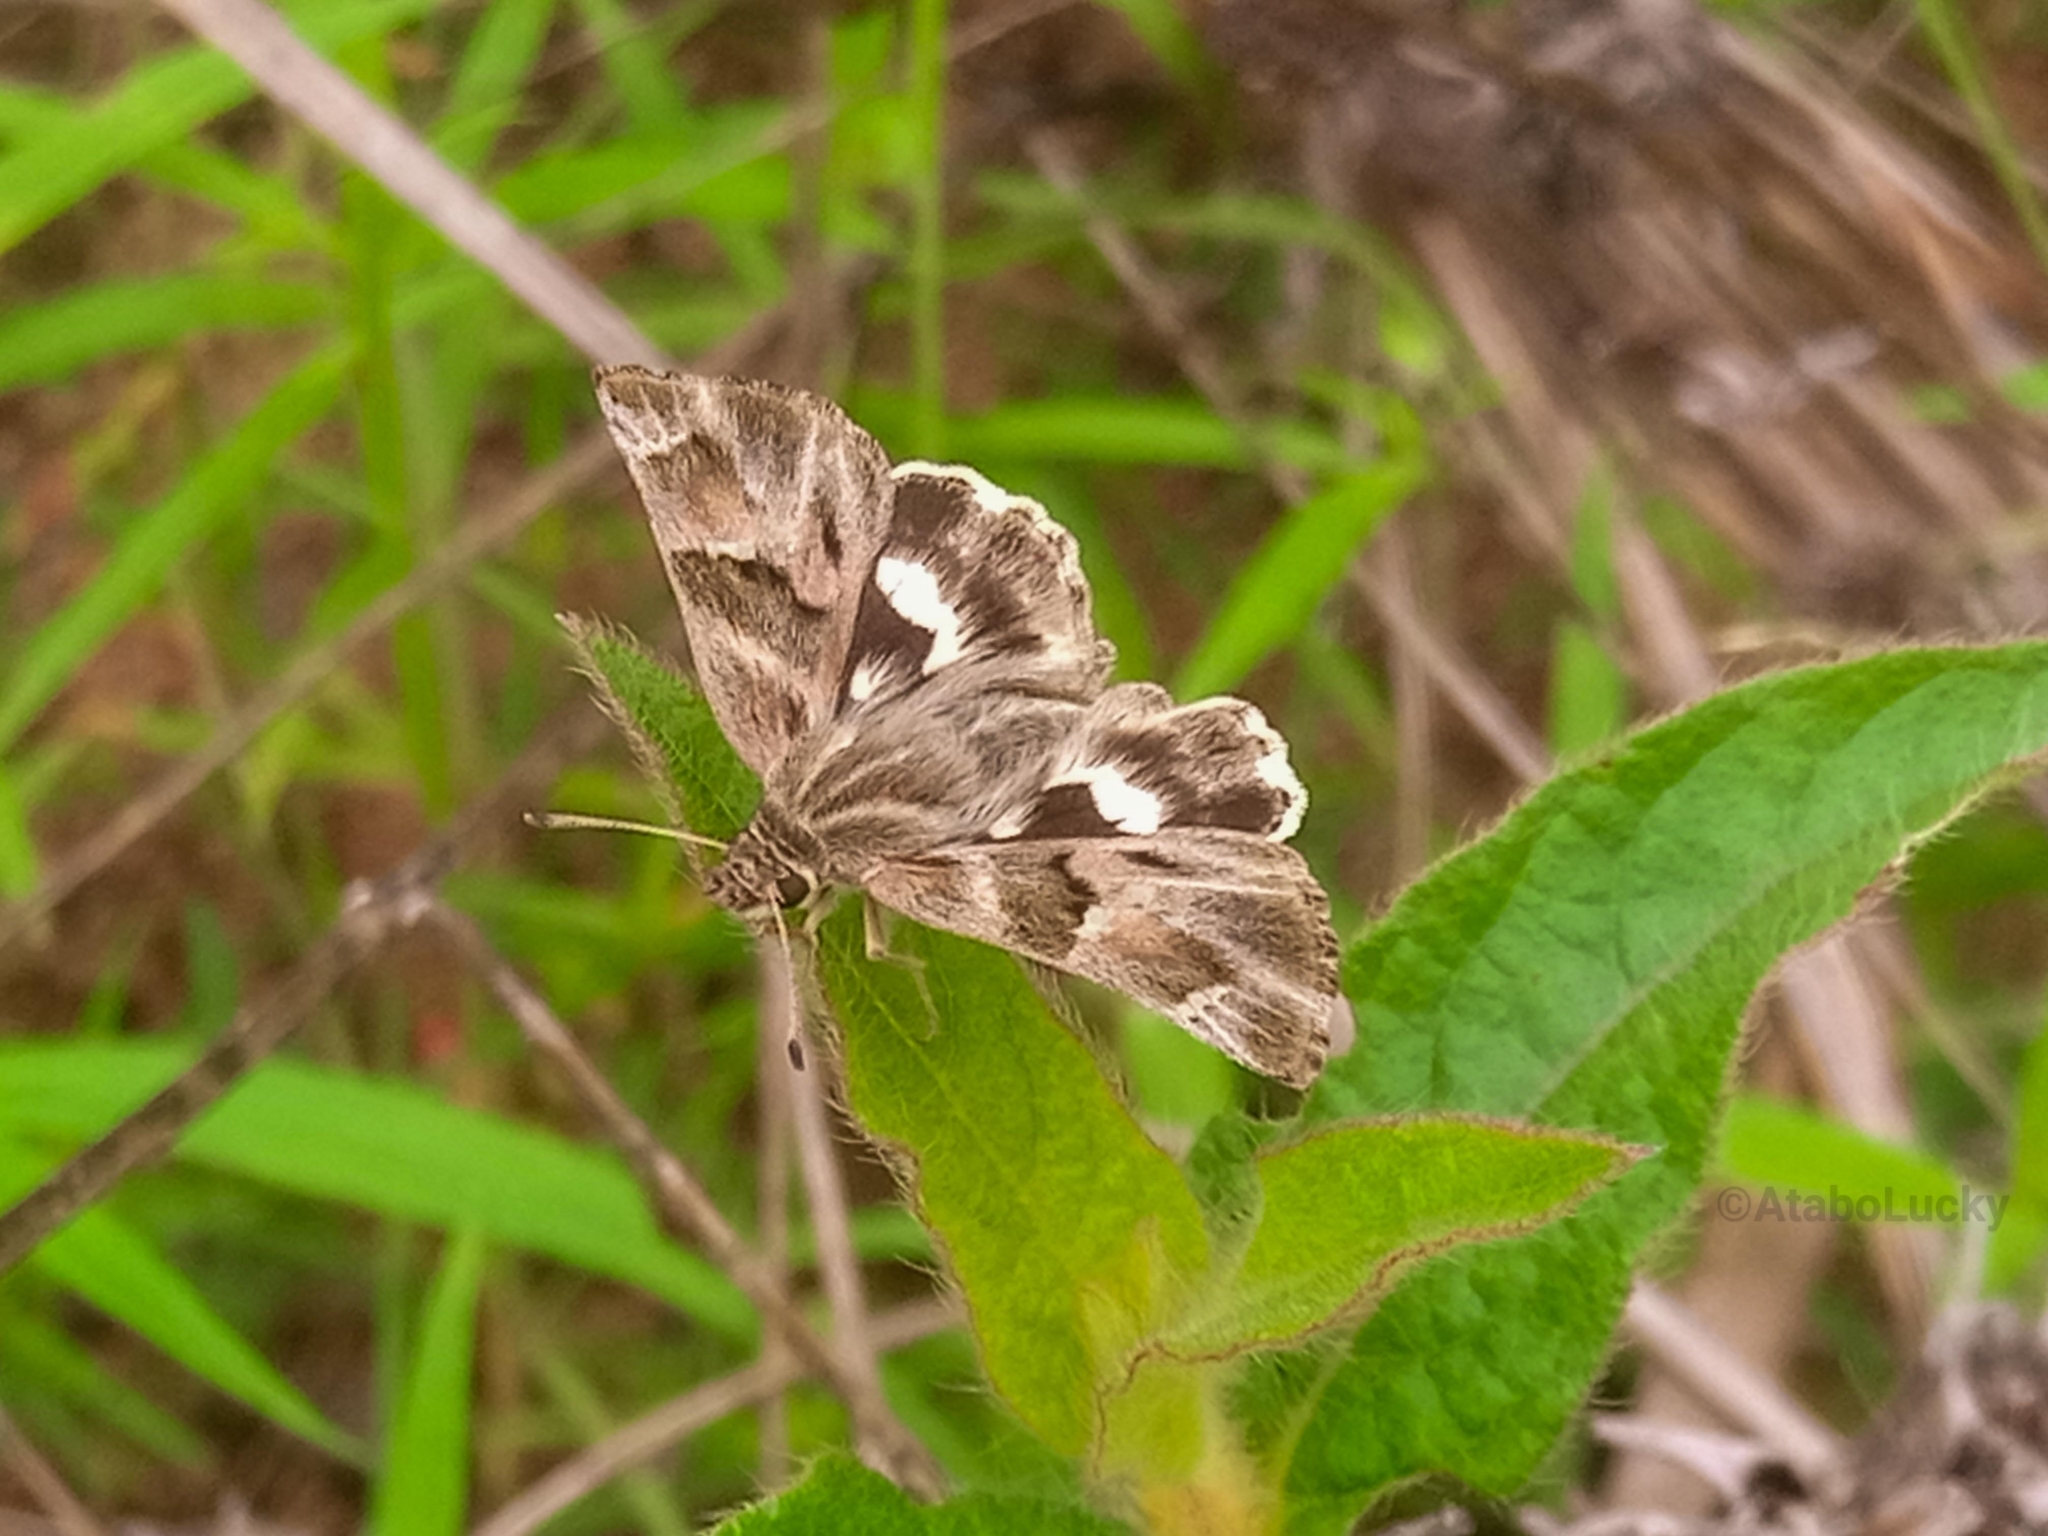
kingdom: Animalia
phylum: Arthropoda
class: Insecta
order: Lepidoptera
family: Hesperiidae
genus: Gomalia
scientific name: Gomalia elma
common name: Green-marbled skipper
